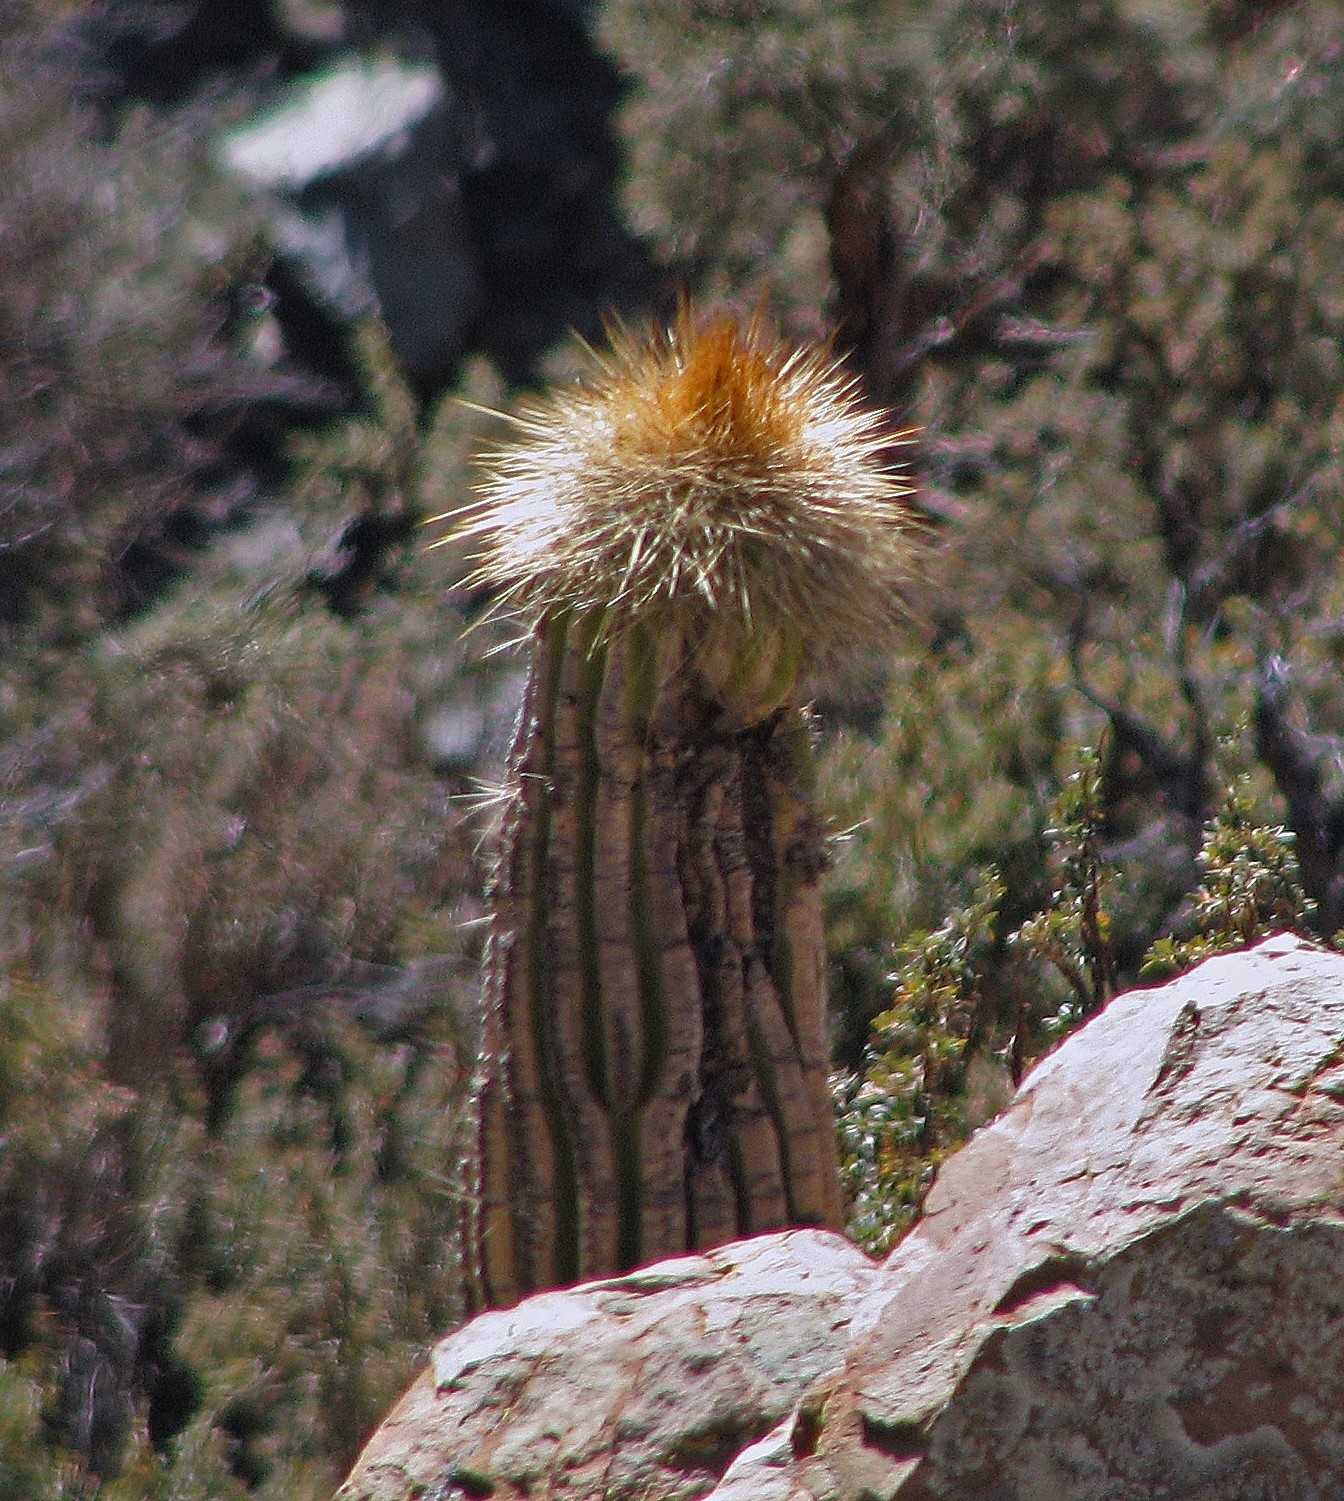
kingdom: Plantae
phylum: Tracheophyta
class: Magnoliopsida
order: Caryophyllales
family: Cactaceae
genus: Soehrensia
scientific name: Soehrensia tarijensis
